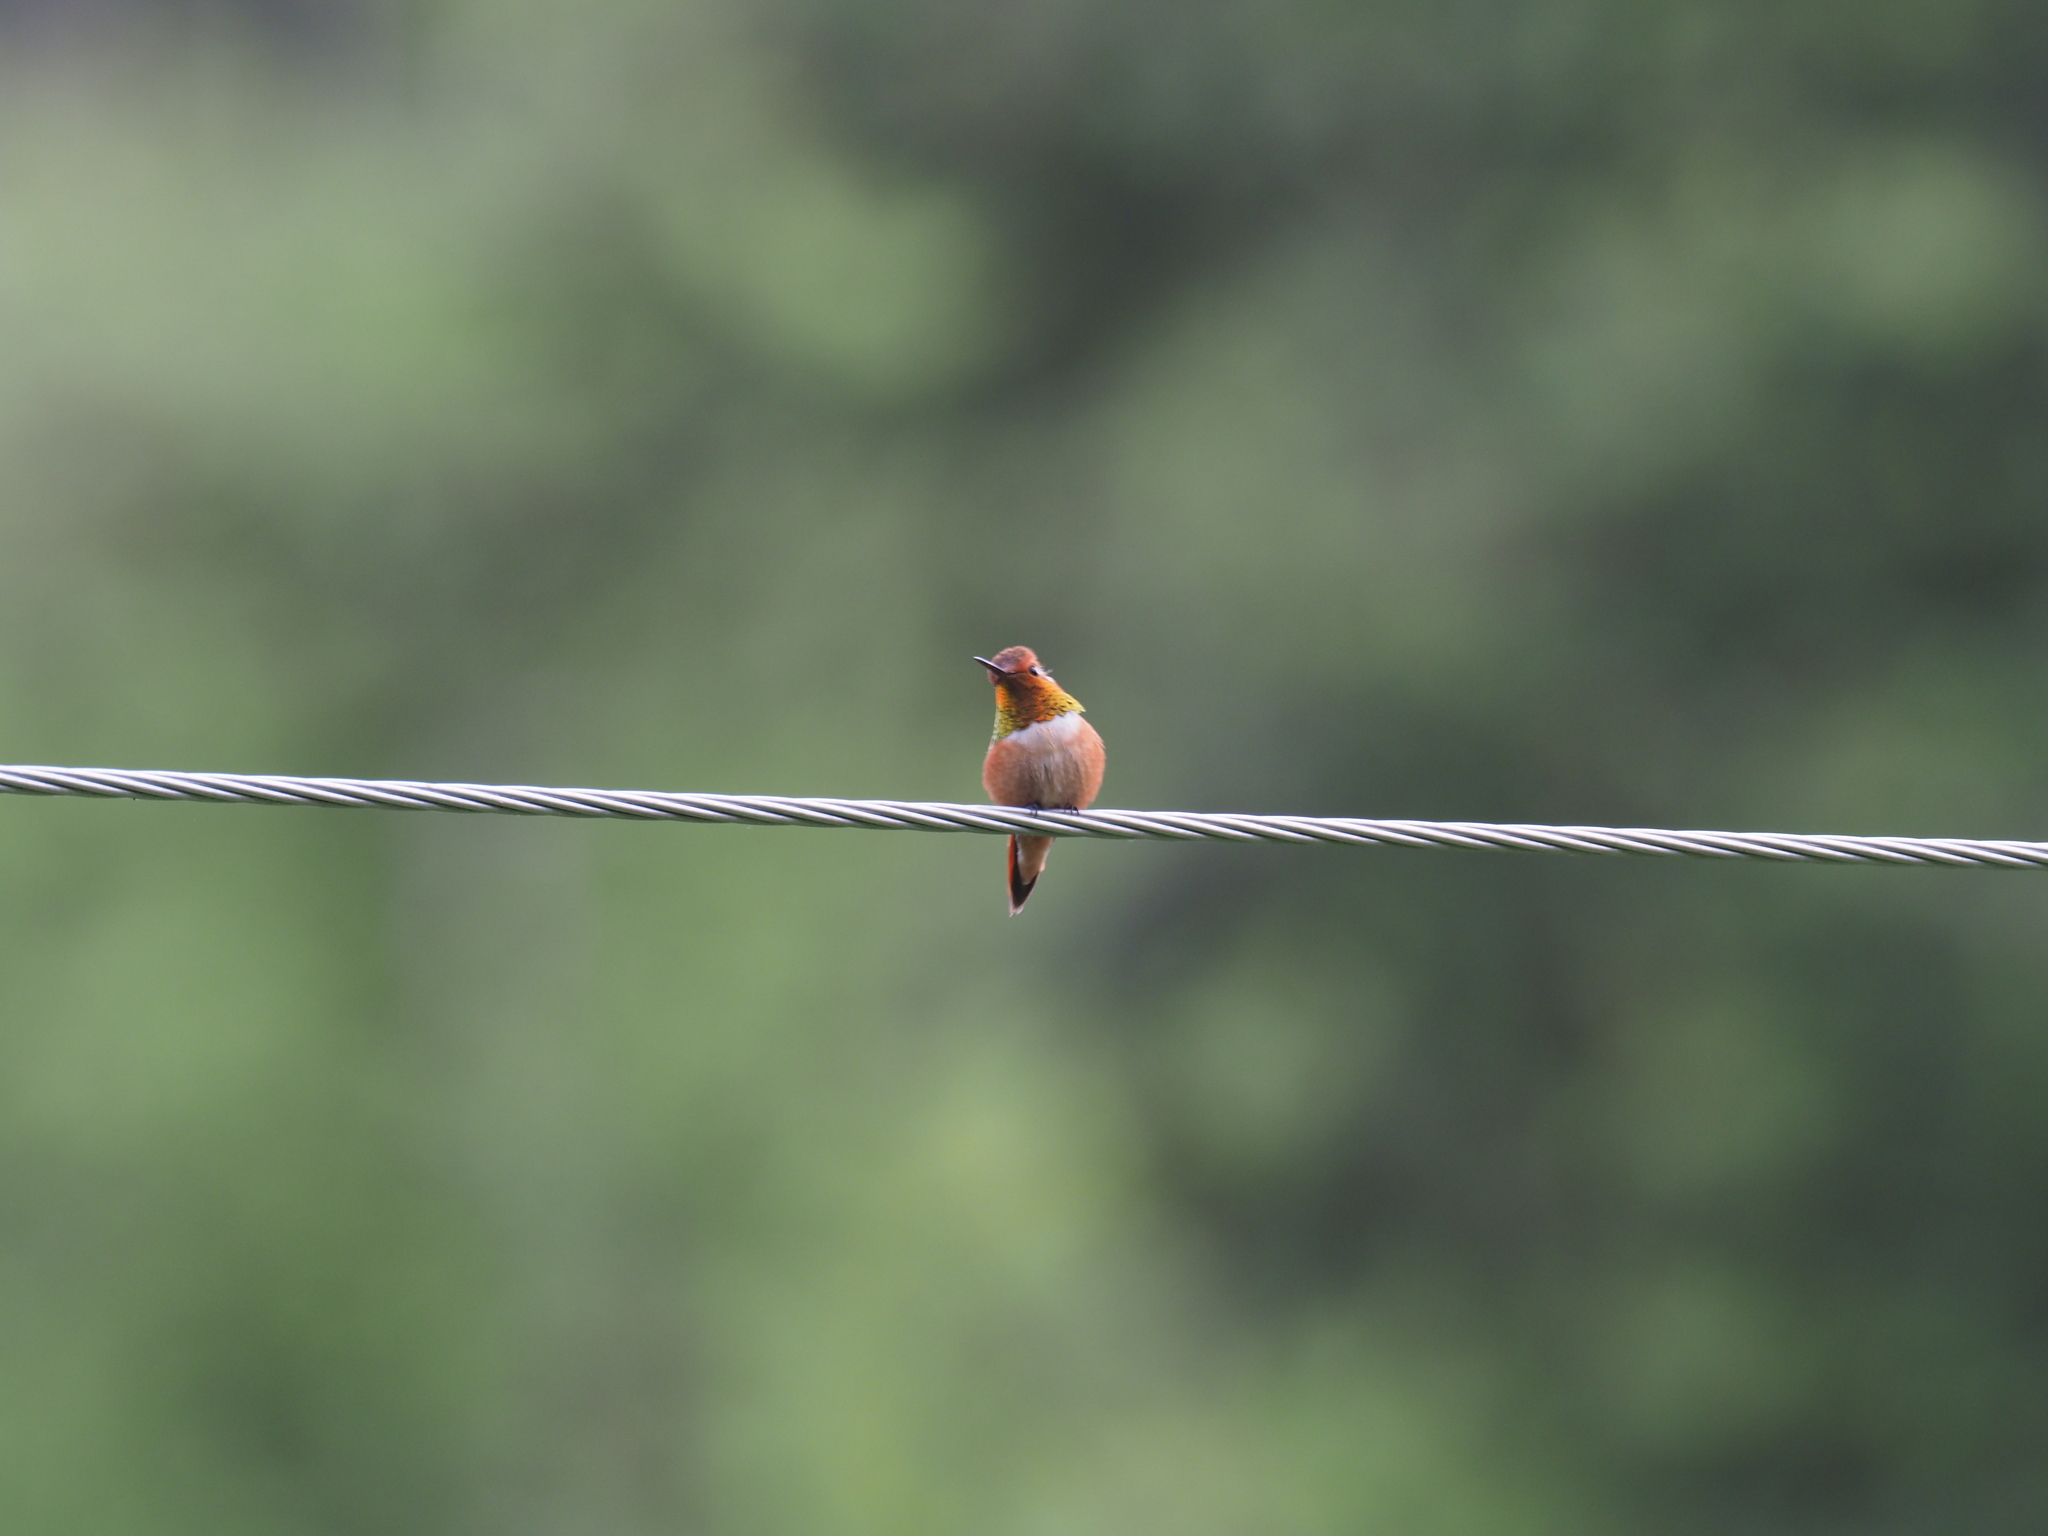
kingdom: Animalia
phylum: Chordata
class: Aves
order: Apodiformes
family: Trochilidae
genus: Selasphorus
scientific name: Selasphorus rufus
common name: Rufous hummingbird
